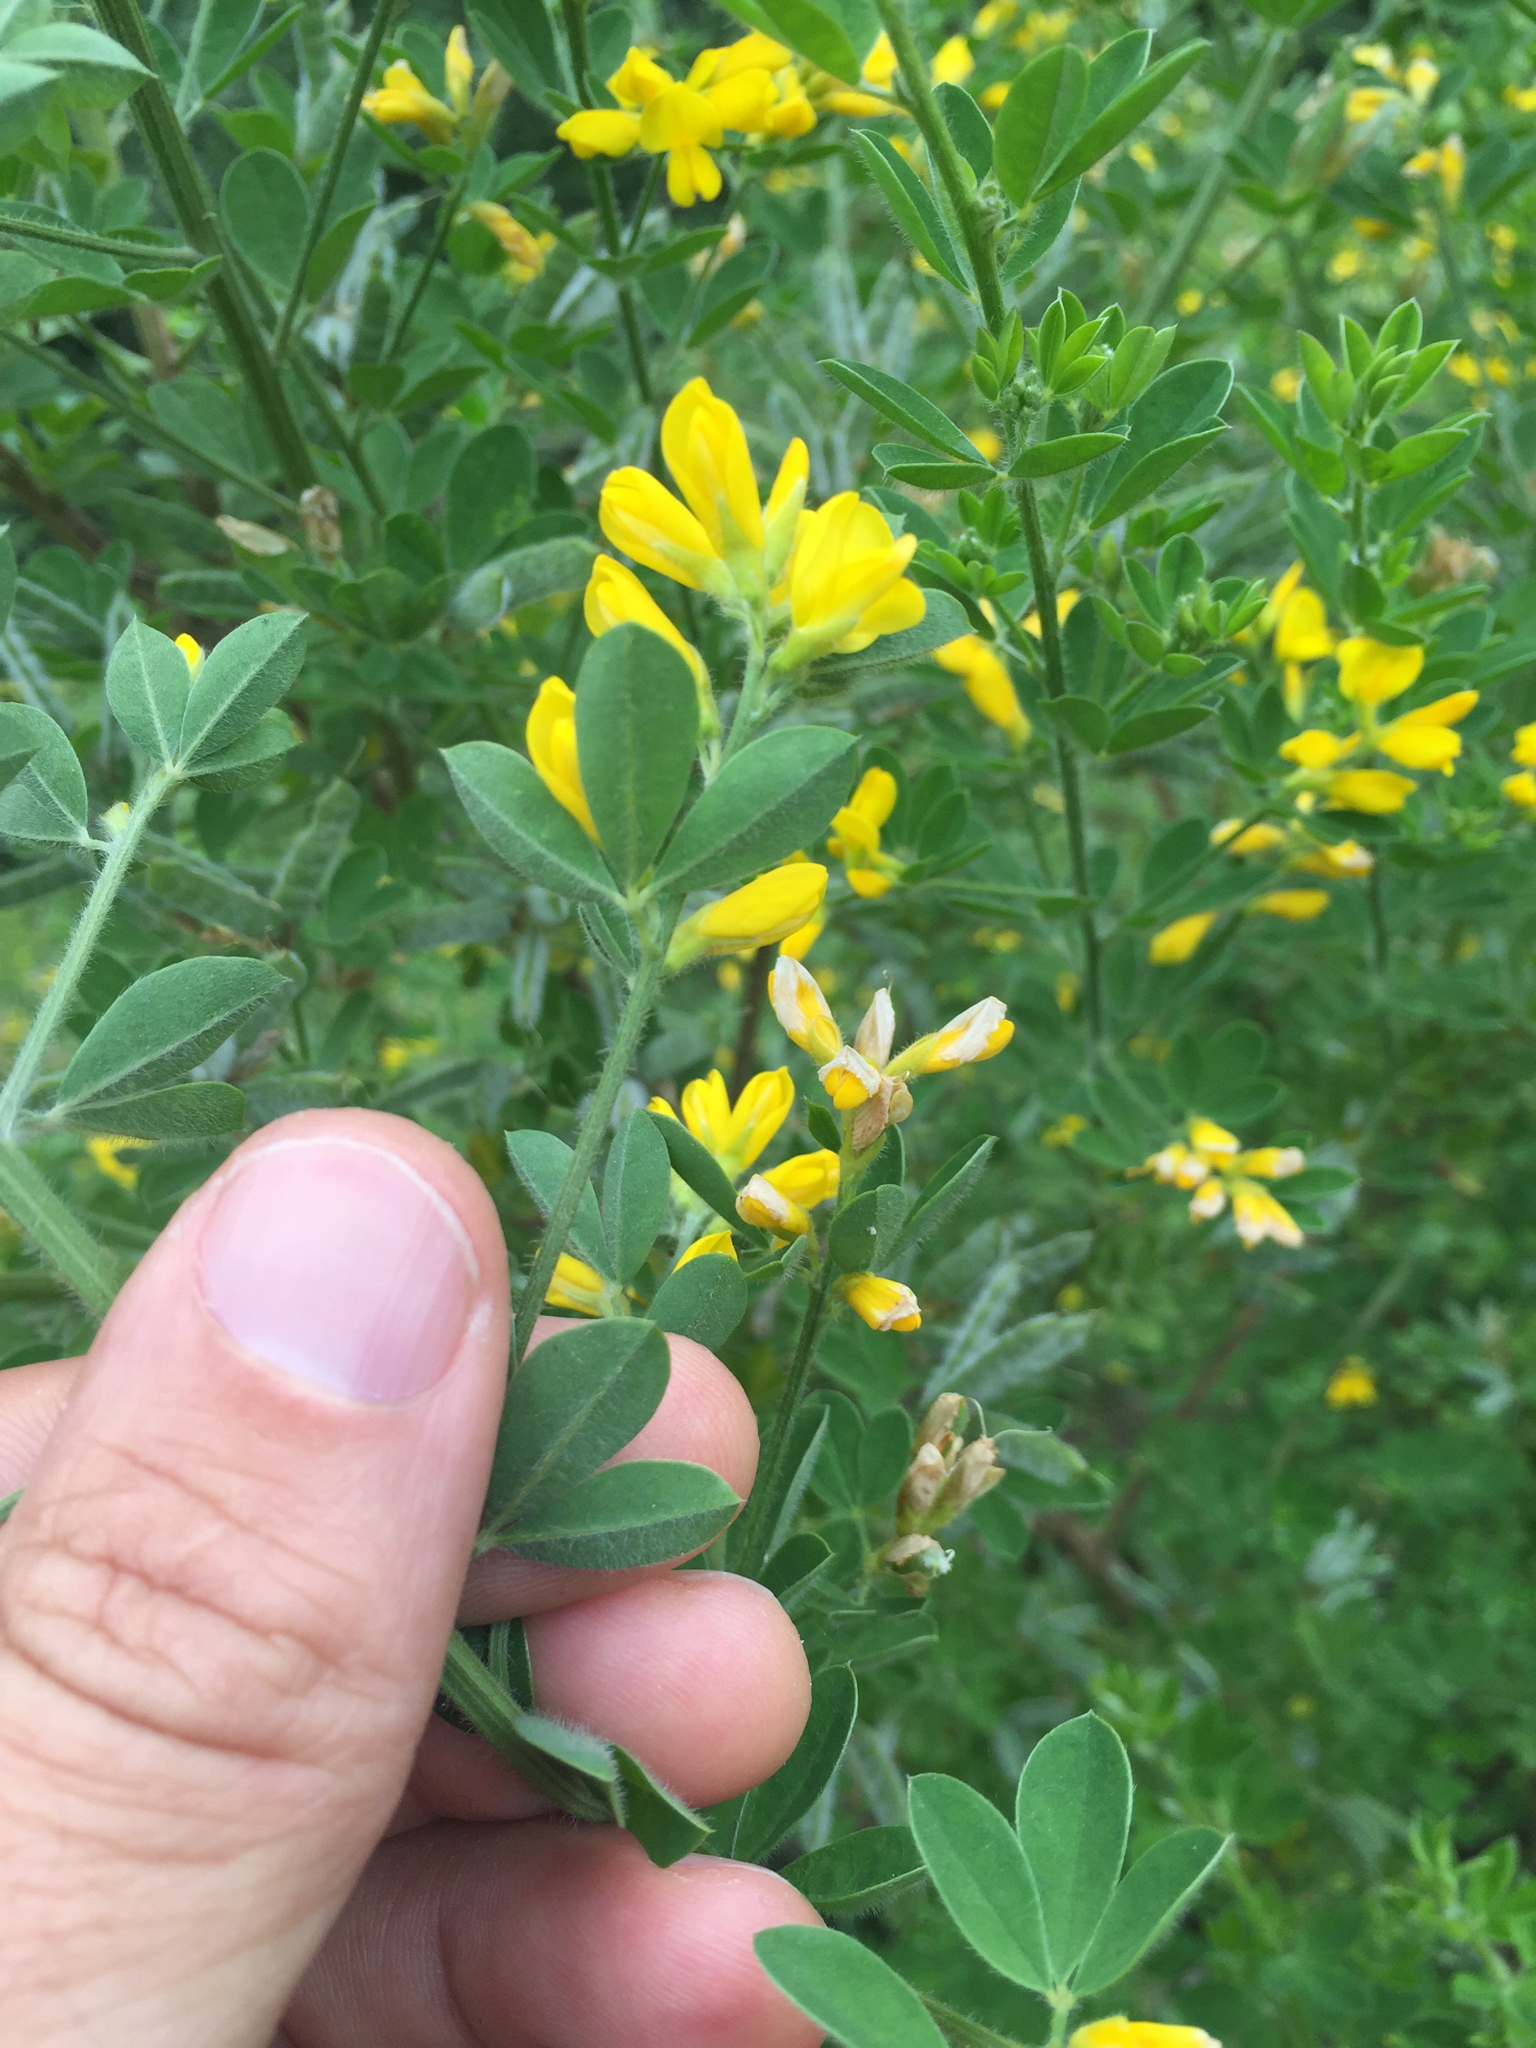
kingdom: Plantae
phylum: Tracheophyta
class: Magnoliopsida
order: Fabales
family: Fabaceae
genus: Genista
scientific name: Genista monspessulana
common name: Montpellier broom
